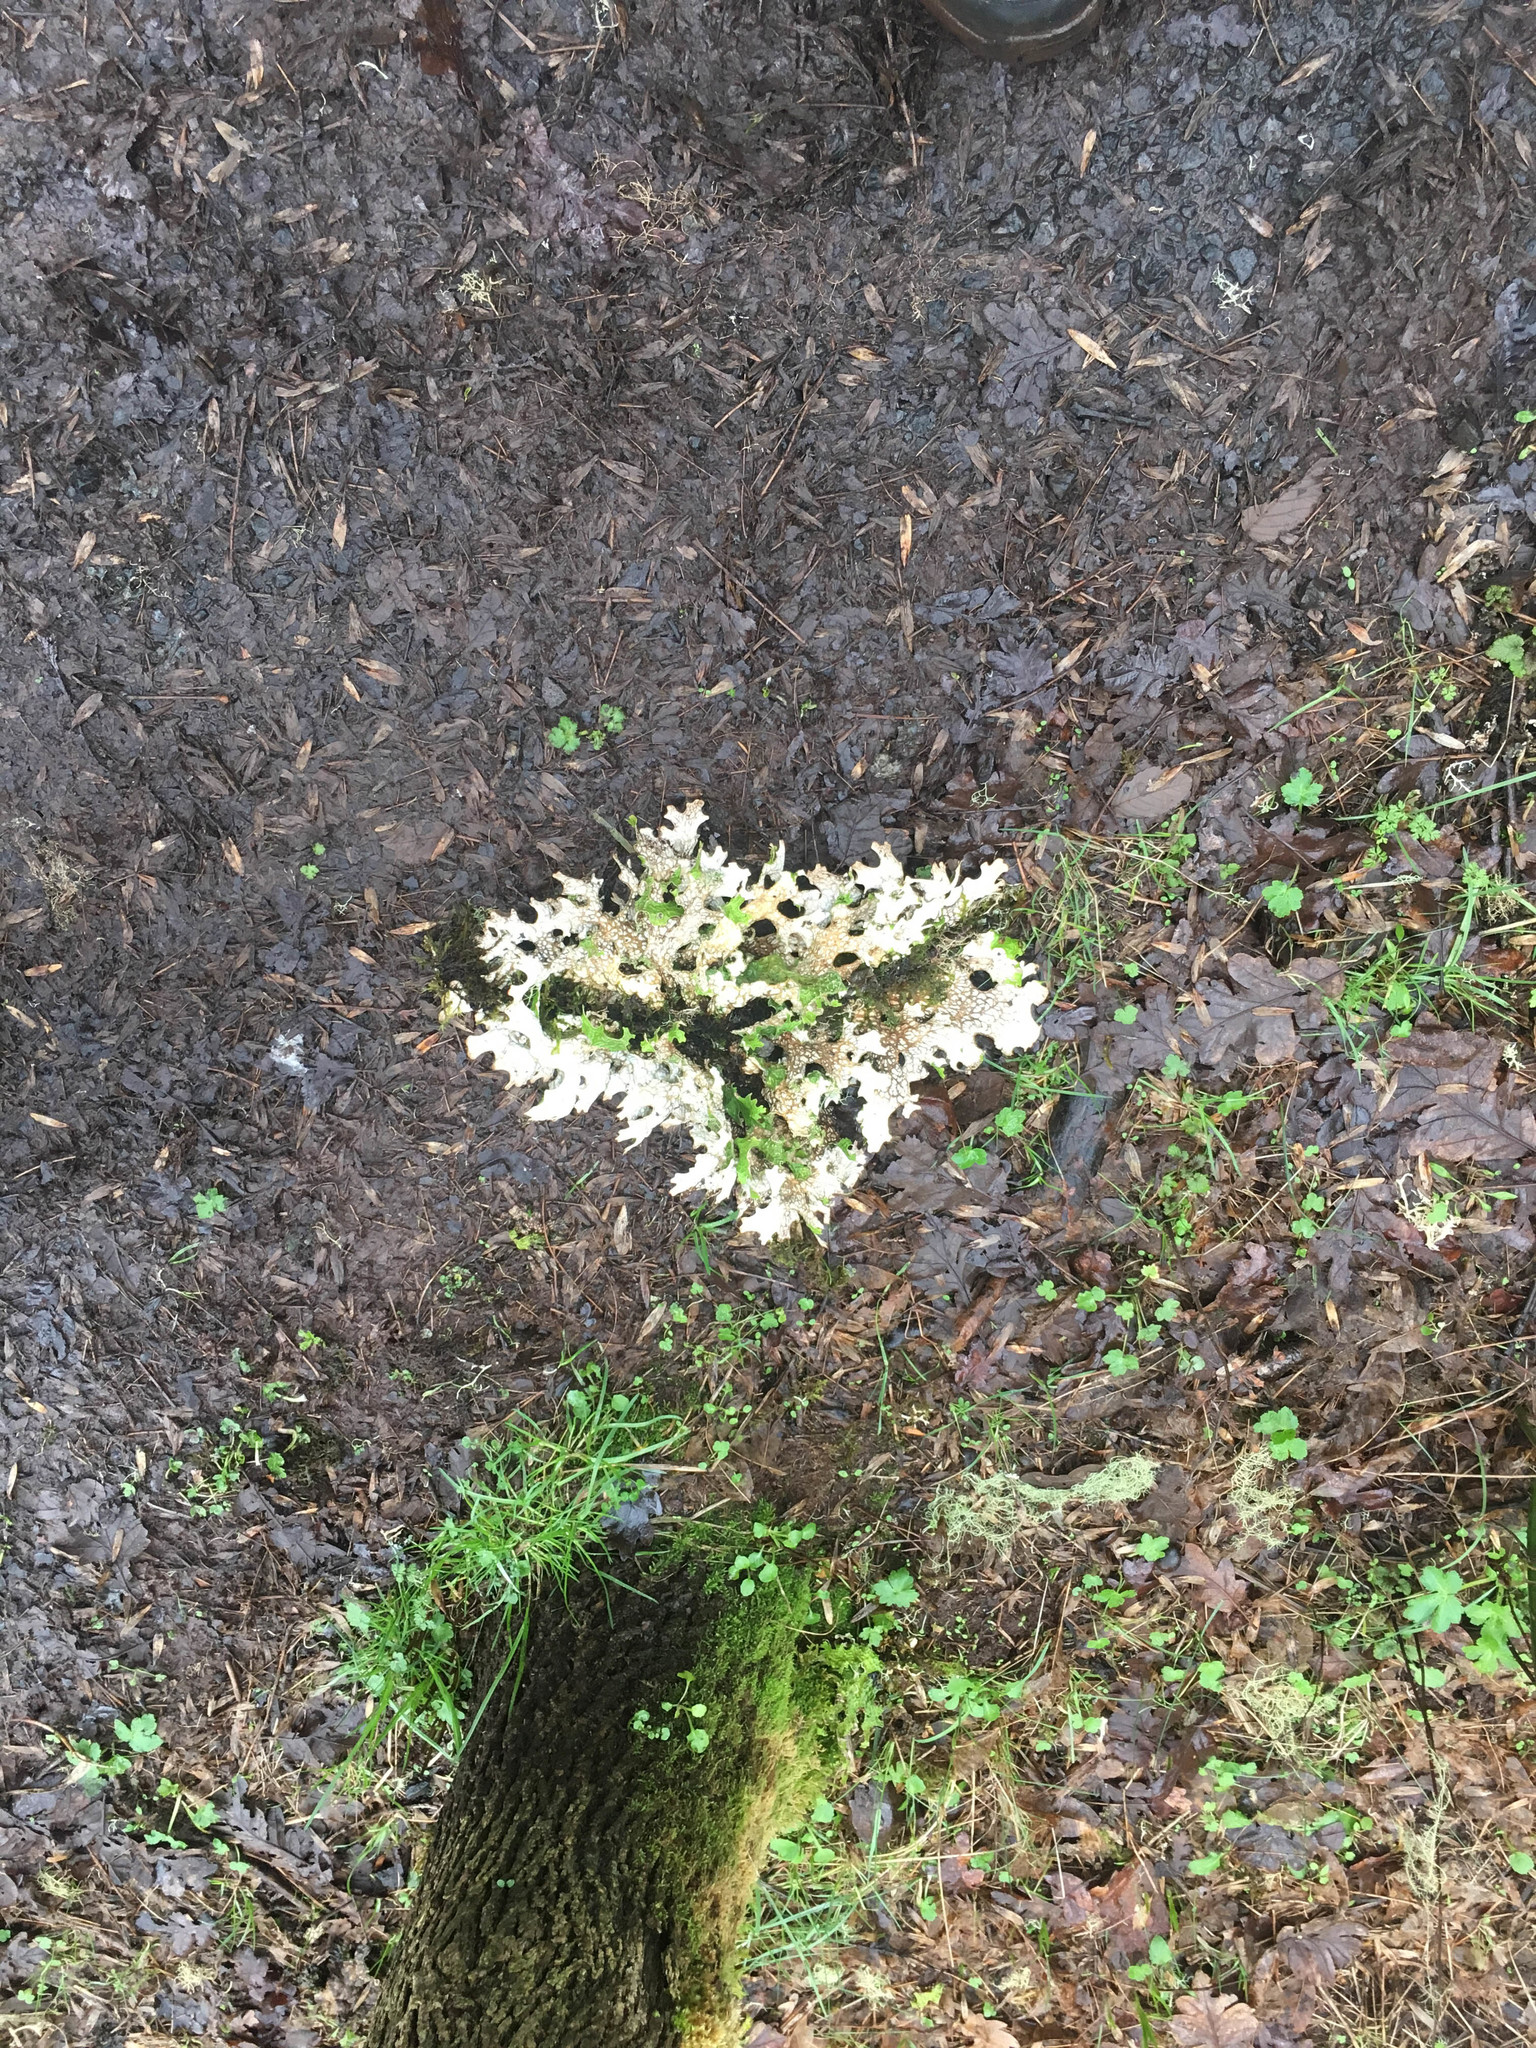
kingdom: Fungi
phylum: Ascomycota
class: Lecanoromycetes
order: Peltigerales
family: Lobariaceae
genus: Lobaria
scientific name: Lobaria pulmonaria
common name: Lungwort
